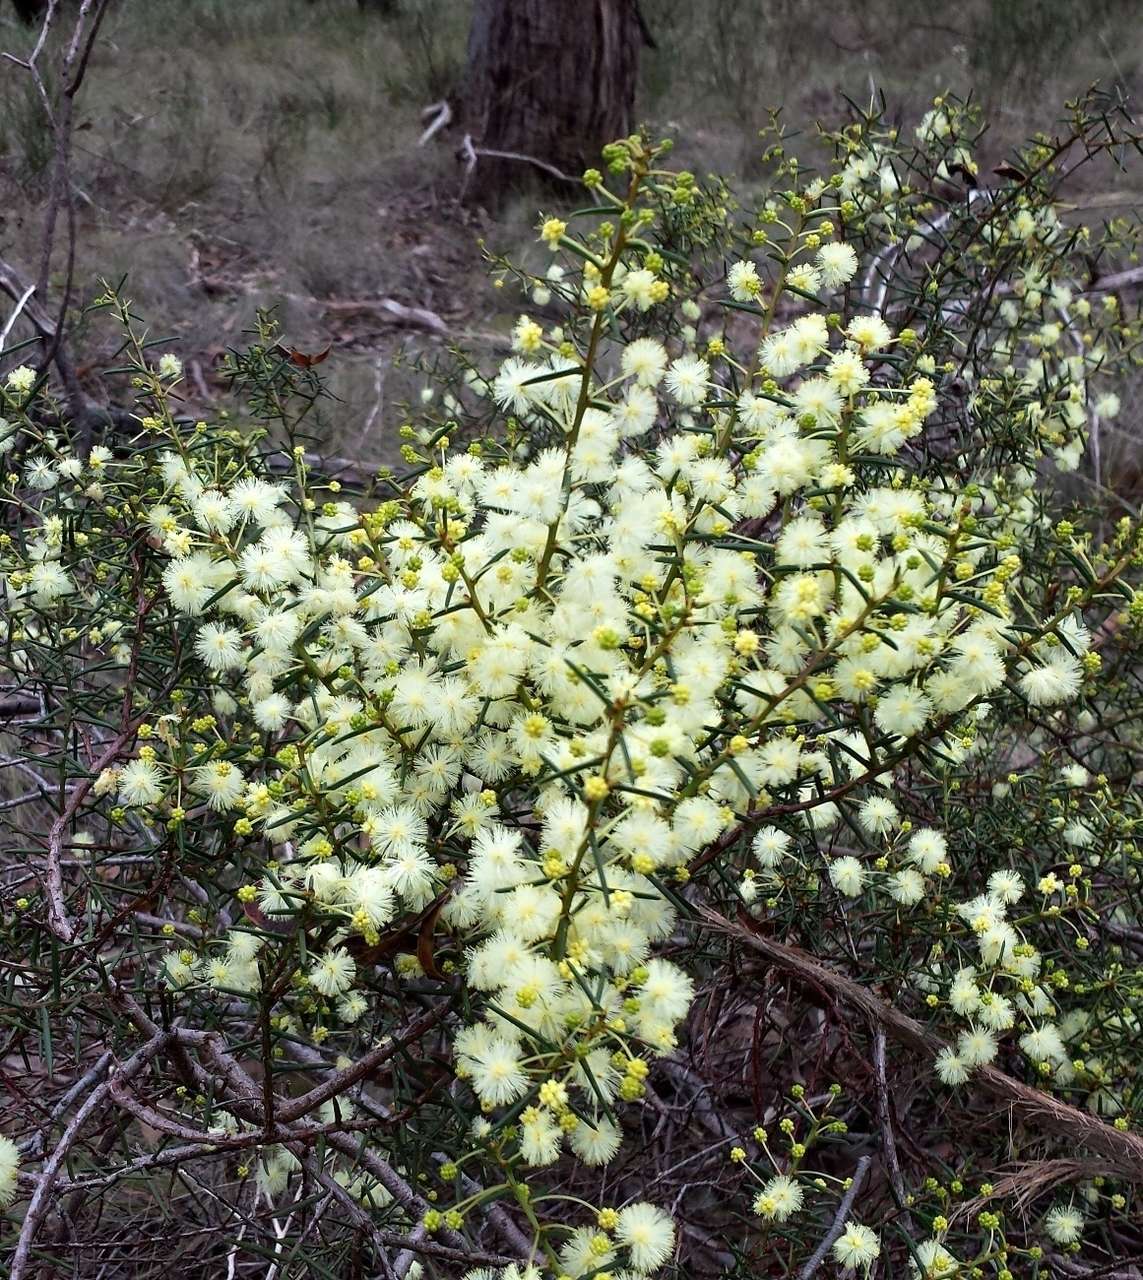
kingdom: Plantae
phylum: Tracheophyta
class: Magnoliopsida
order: Fabales
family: Fabaceae
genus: Acacia
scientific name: Acacia genistifolia
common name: Early wattle
